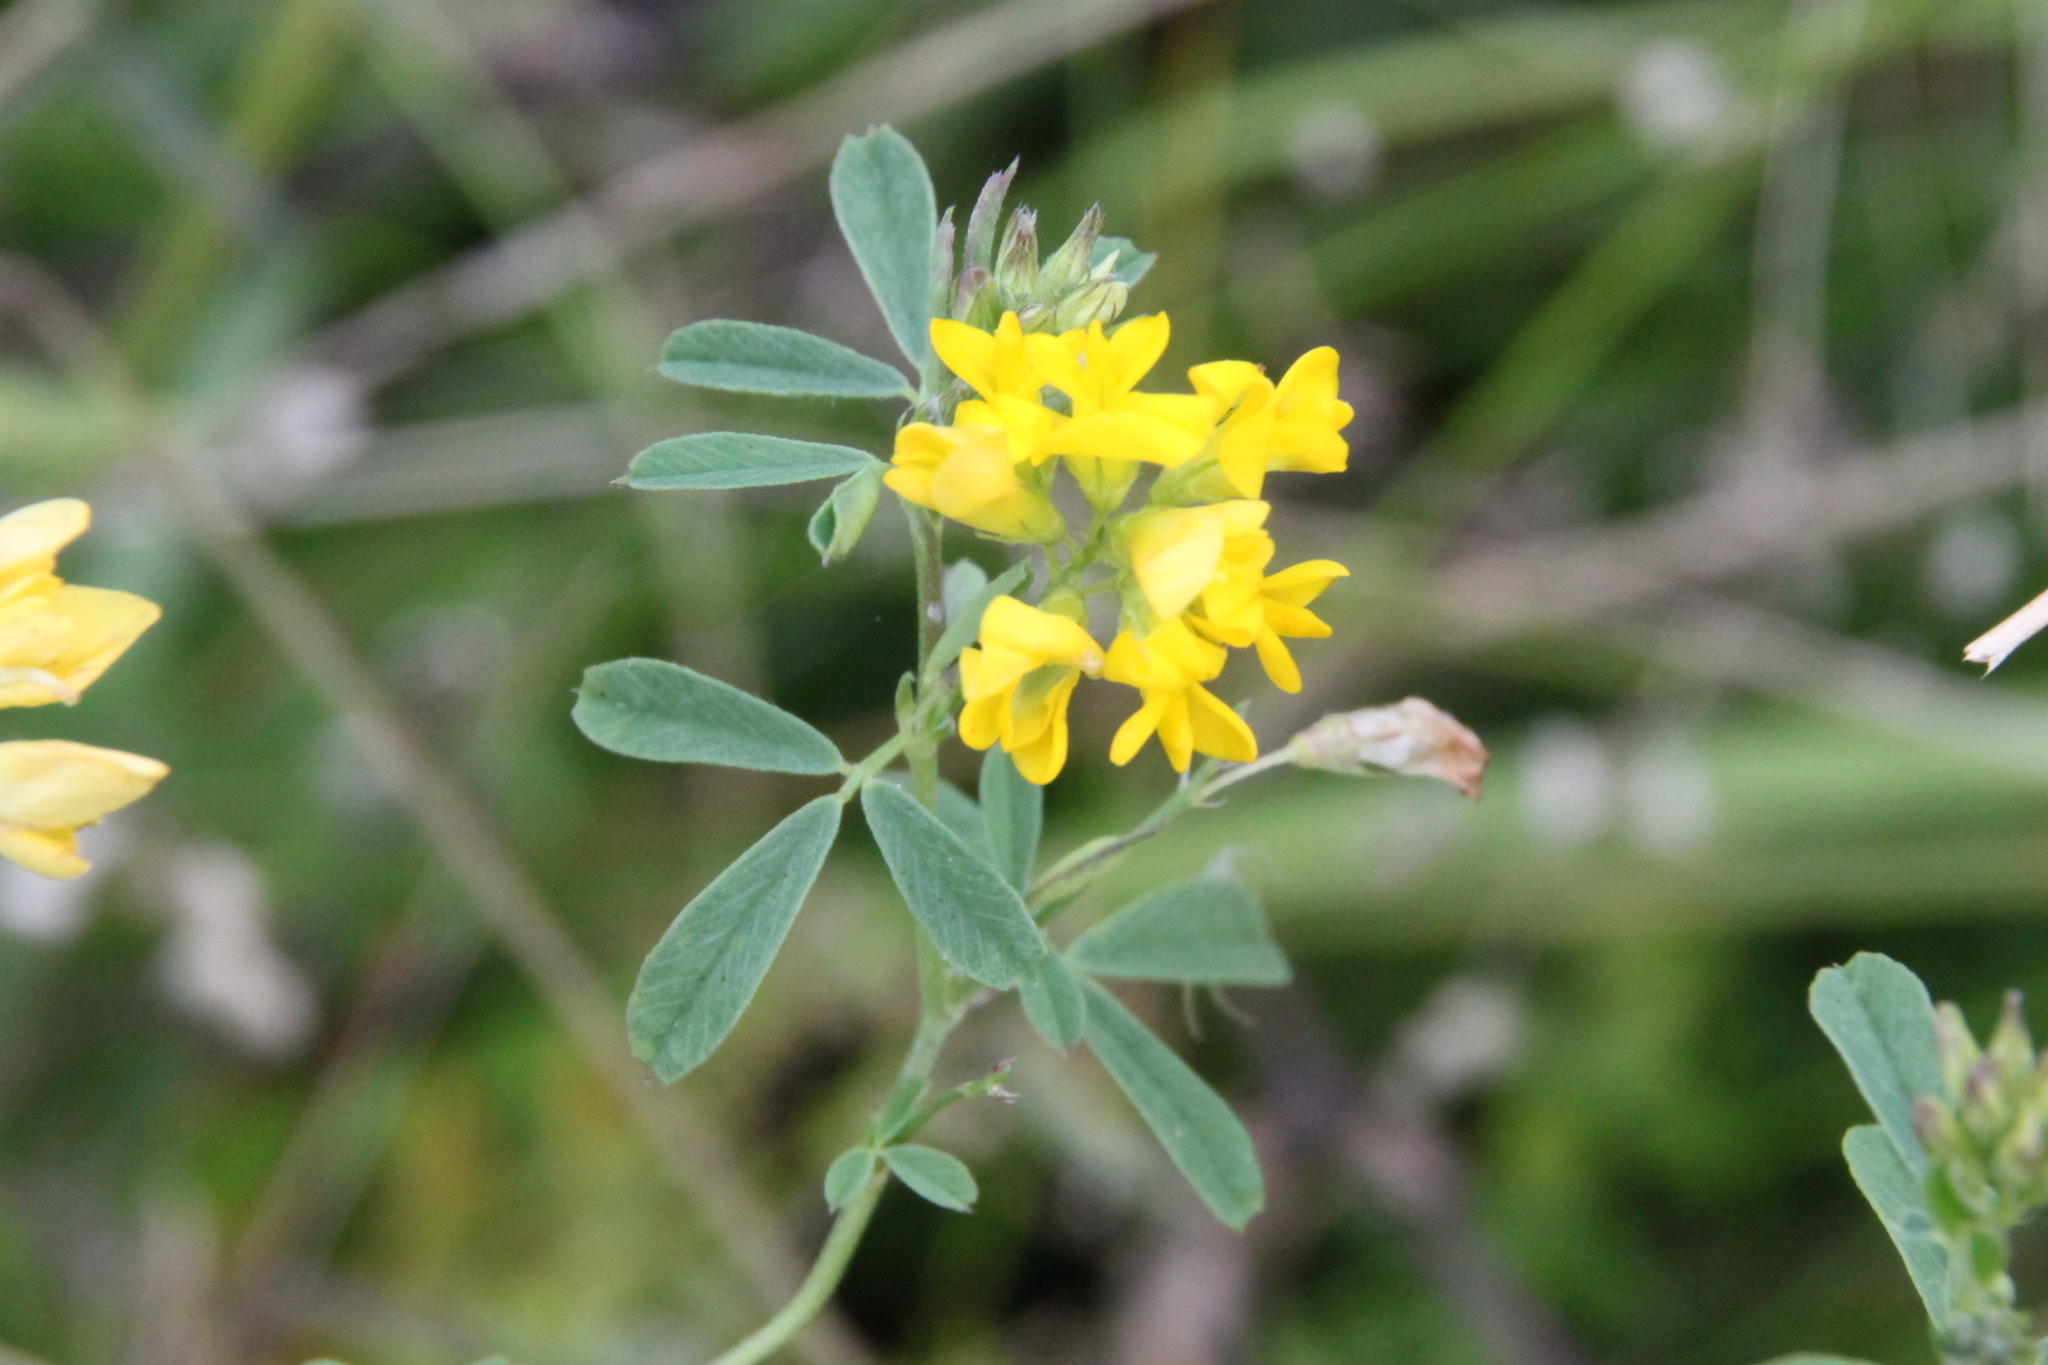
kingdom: Plantae
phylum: Tracheophyta
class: Magnoliopsida
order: Fabales
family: Fabaceae
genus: Medicago
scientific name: Medicago falcata
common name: Sickle medick
